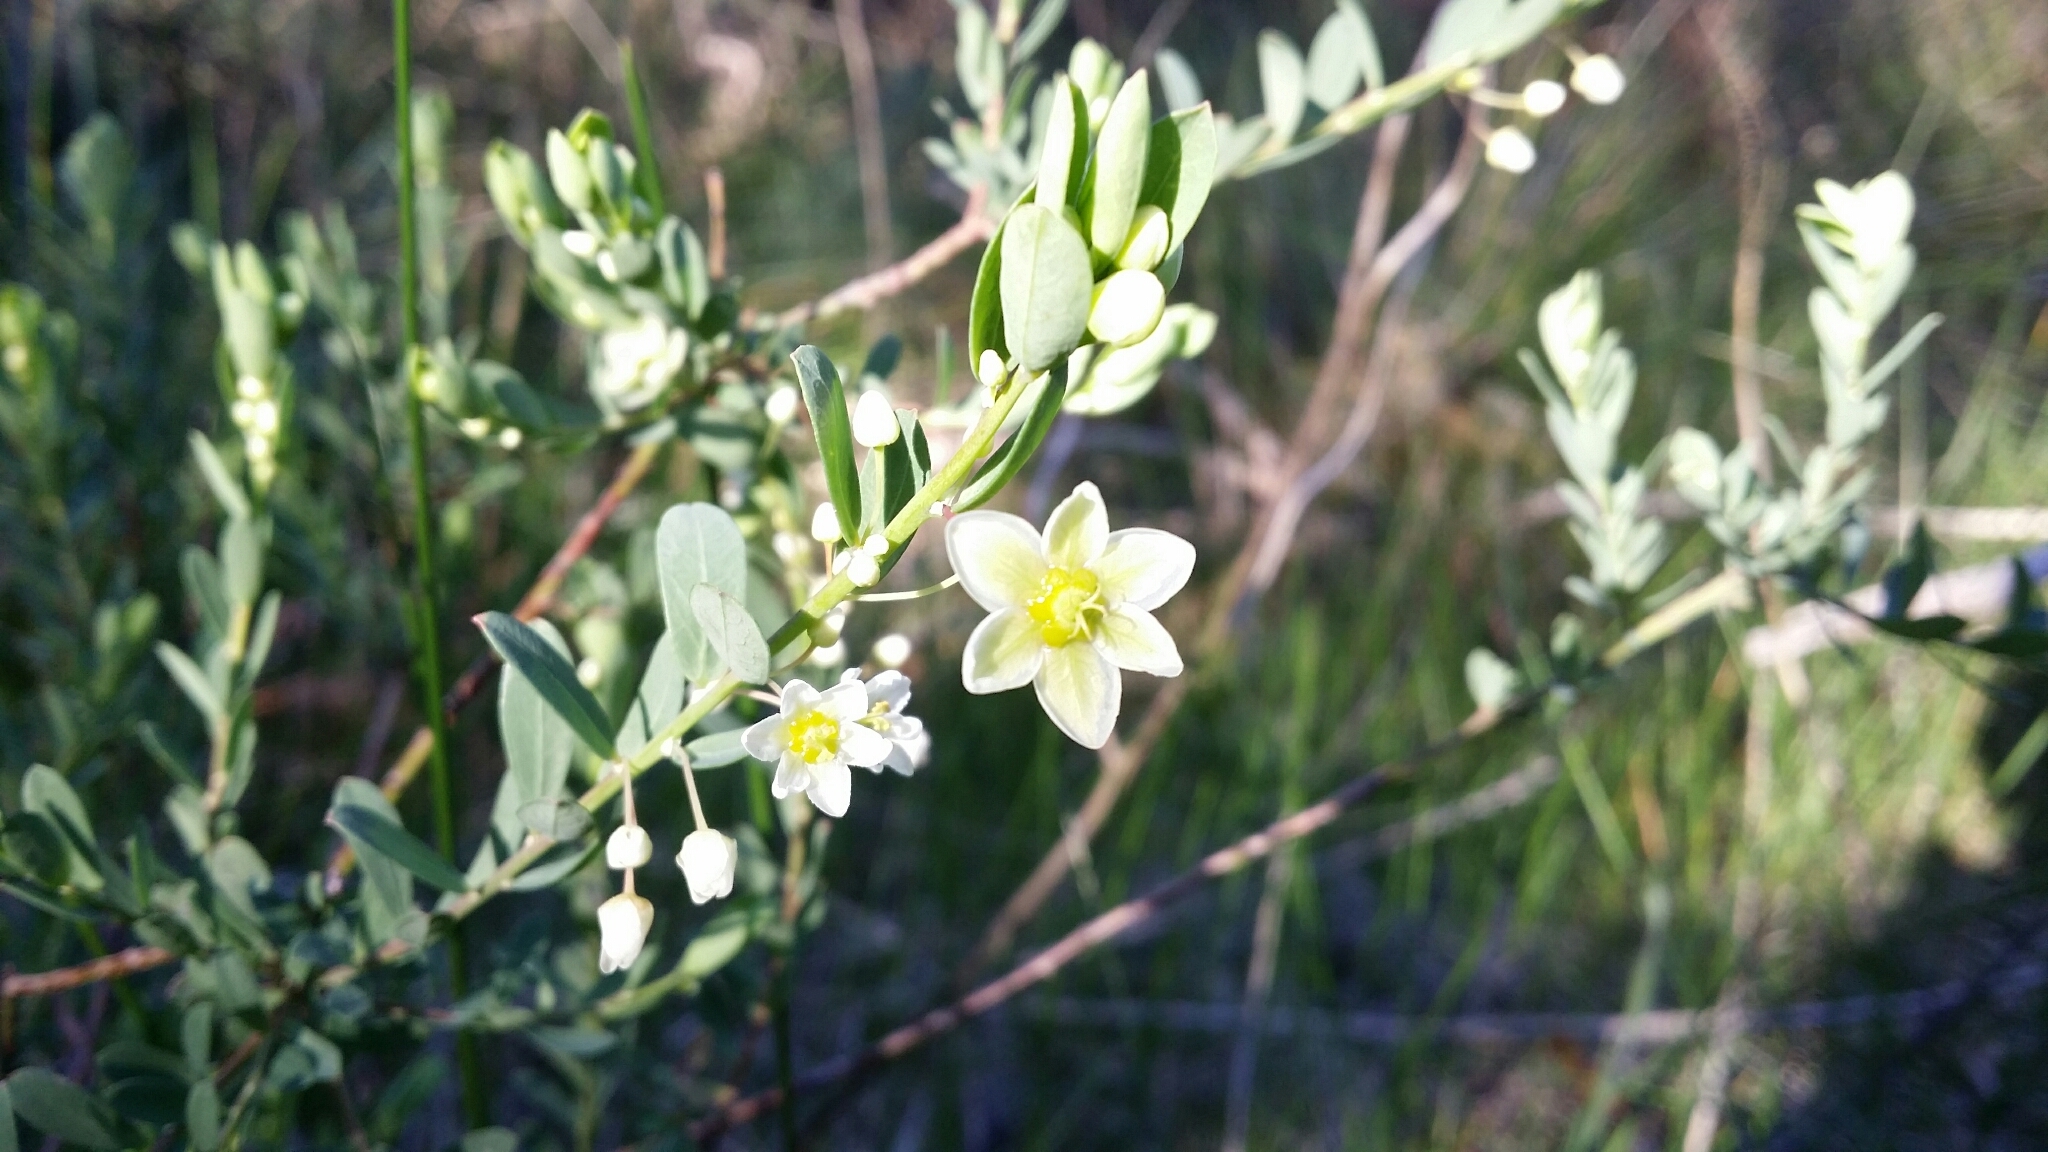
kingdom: Plantae
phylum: Tracheophyta
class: Magnoliopsida
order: Malpighiales
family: Phyllanthaceae
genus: Phyllanthus
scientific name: Phyllanthus calycinus
